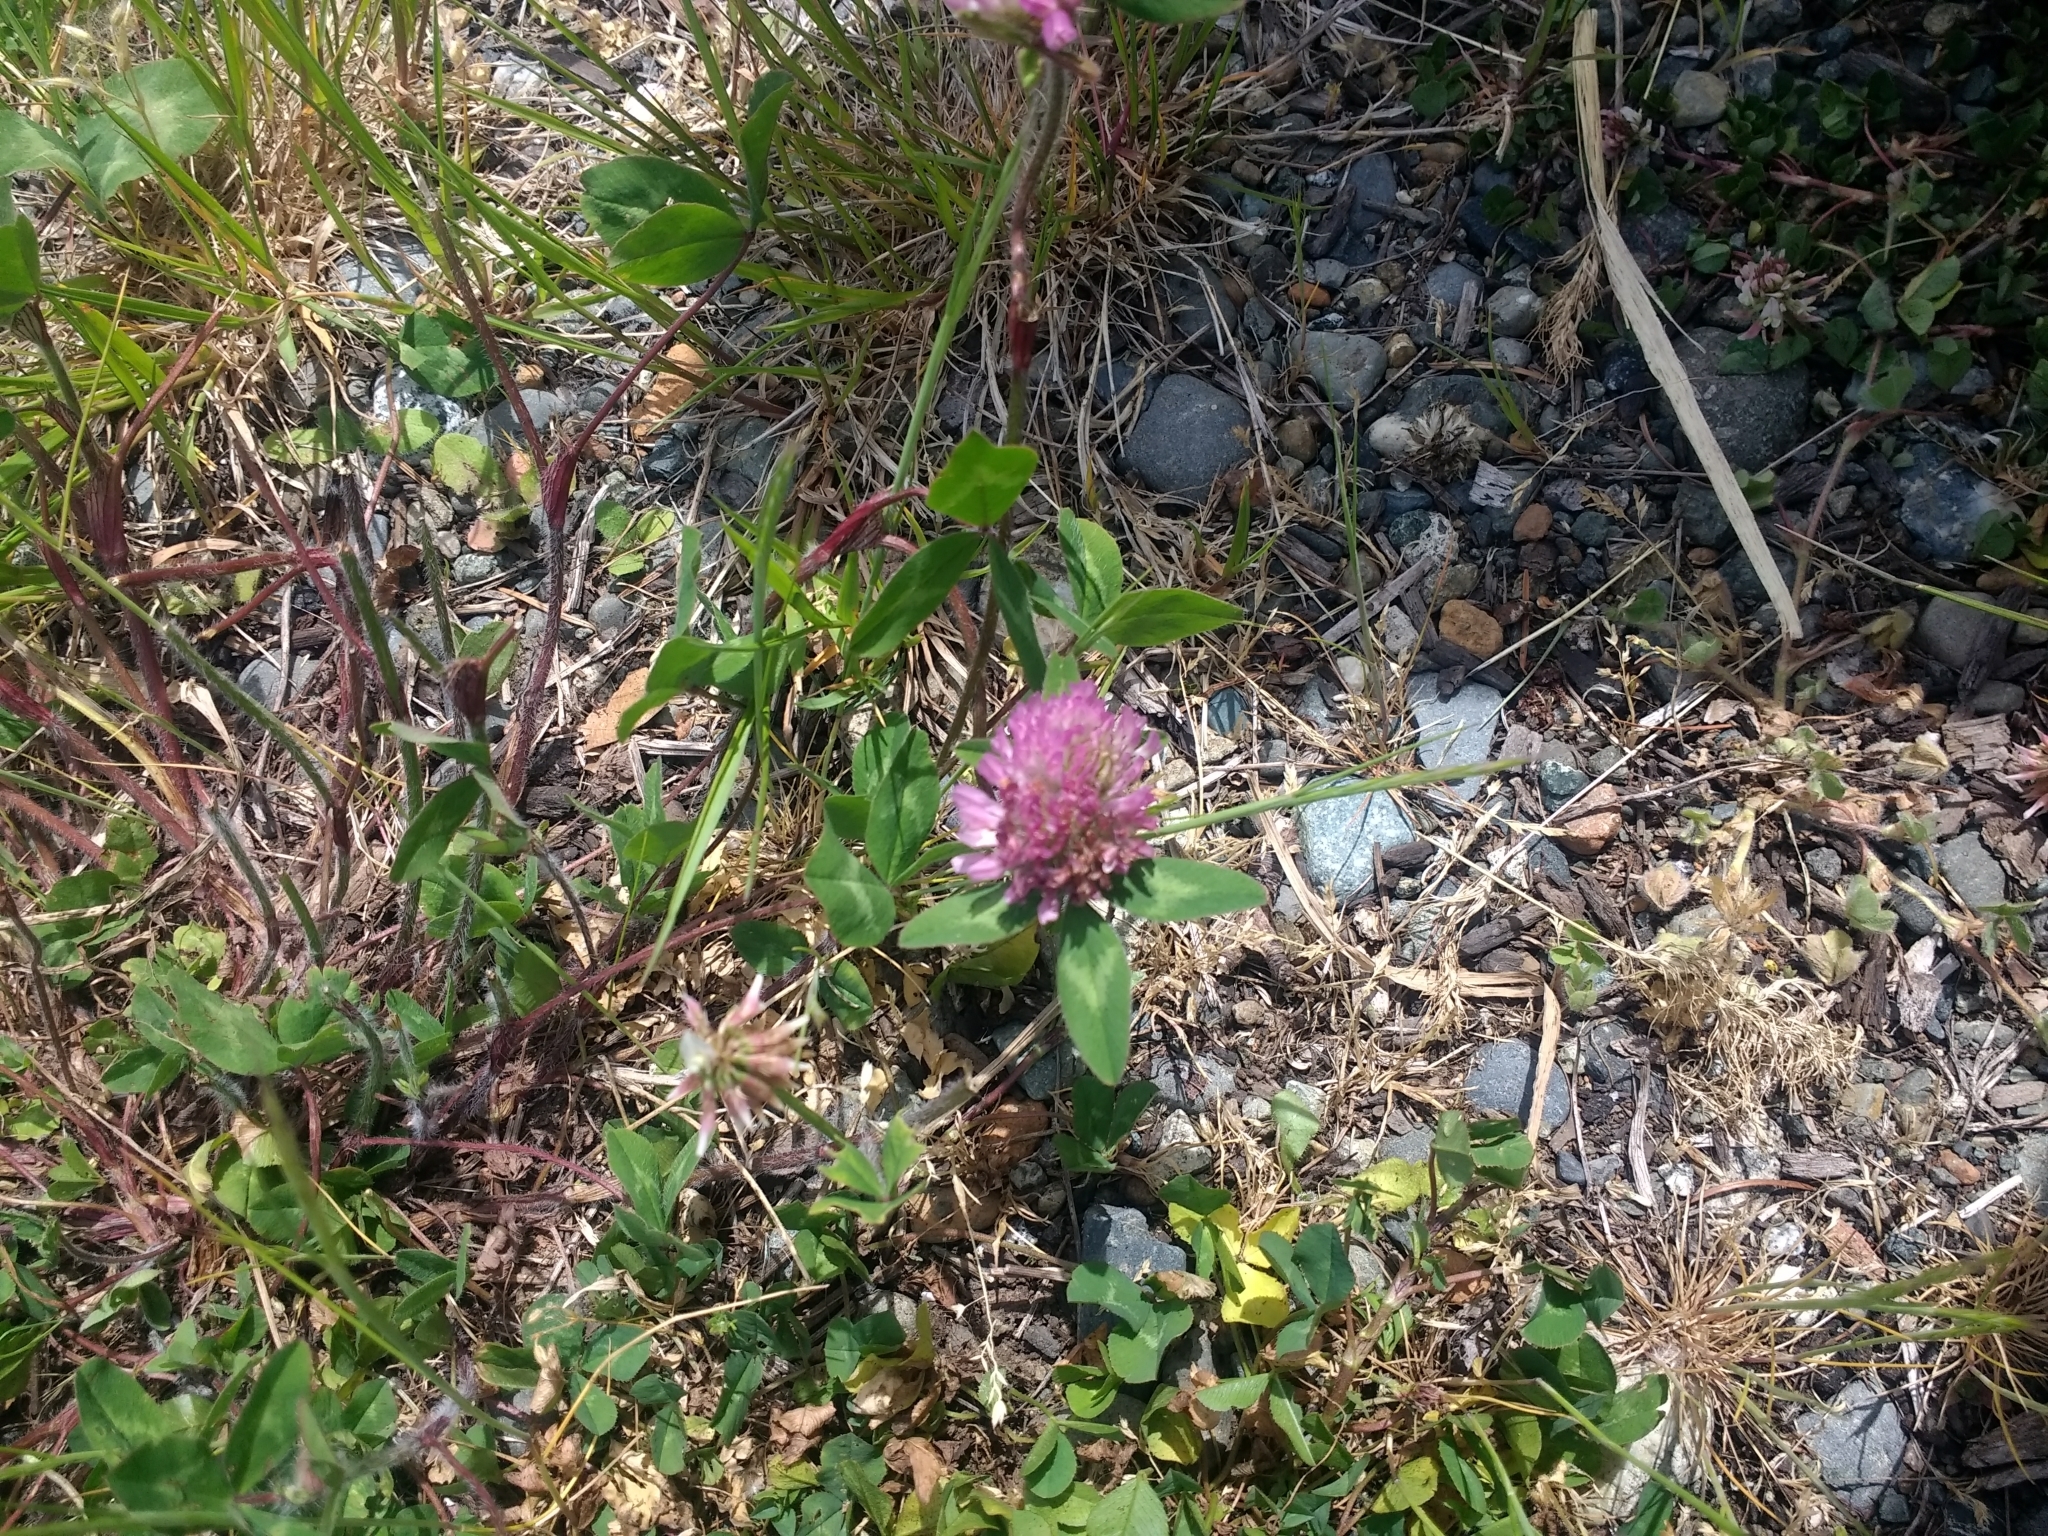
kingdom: Plantae
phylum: Tracheophyta
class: Magnoliopsida
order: Fabales
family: Fabaceae
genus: Trifolium
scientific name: Trifolium pratense
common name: Red clover
